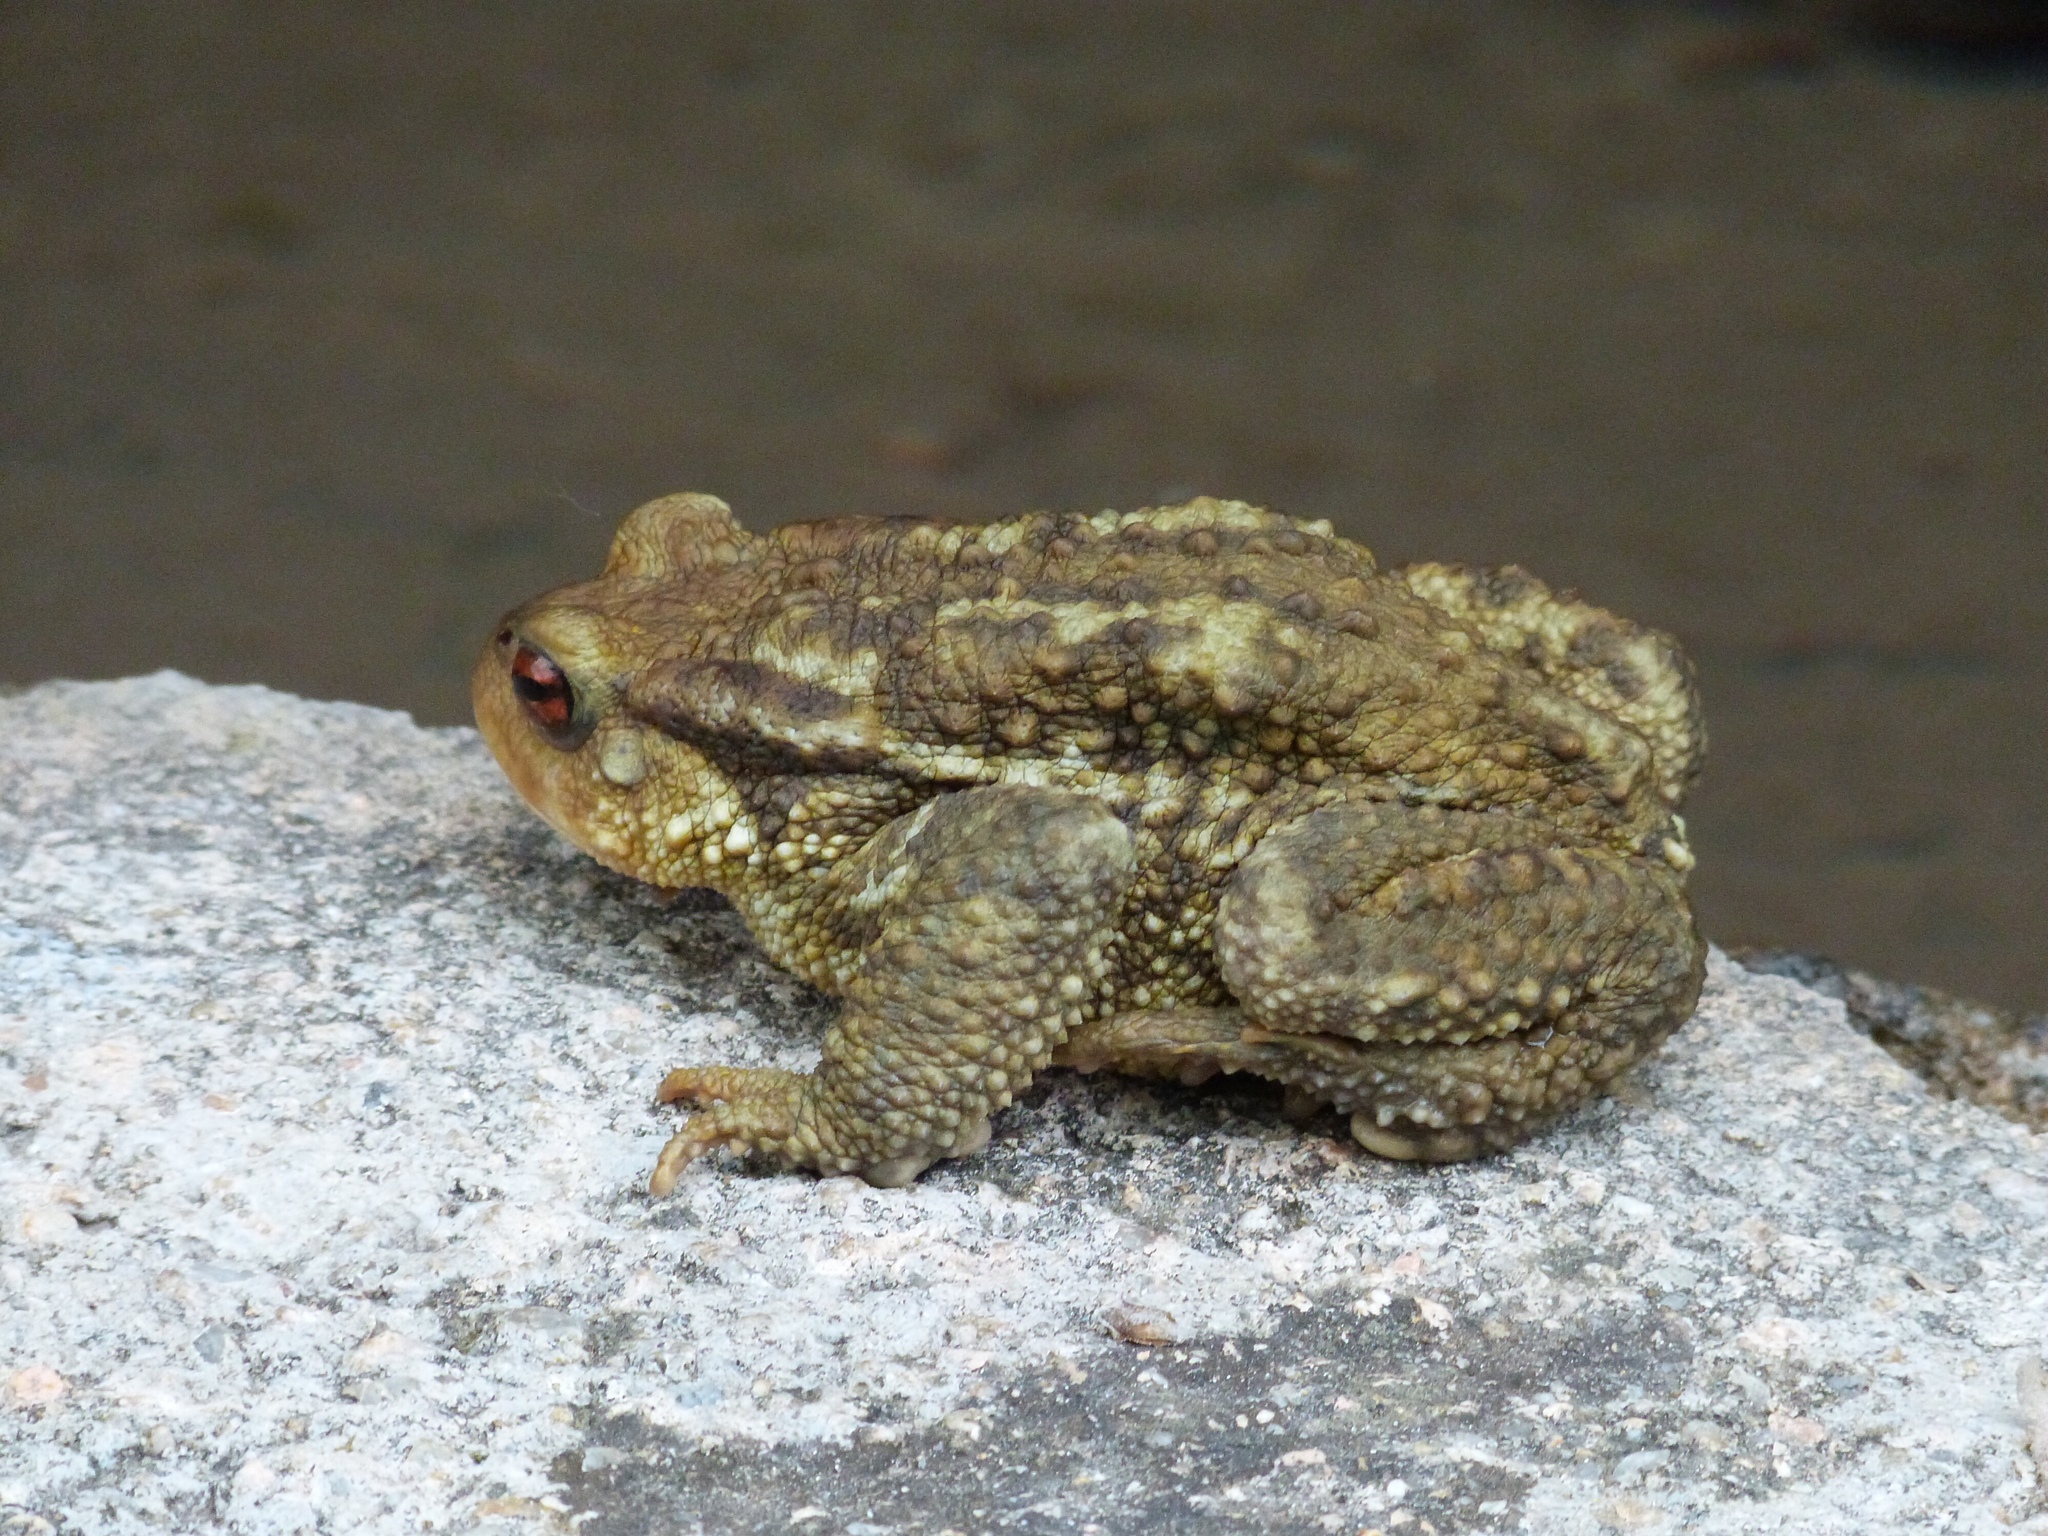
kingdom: Animalia
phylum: Chordata
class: Amphibia
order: Anura
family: Bufonidae
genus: Bufo
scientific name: Bufo spinosus
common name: Western common toad
